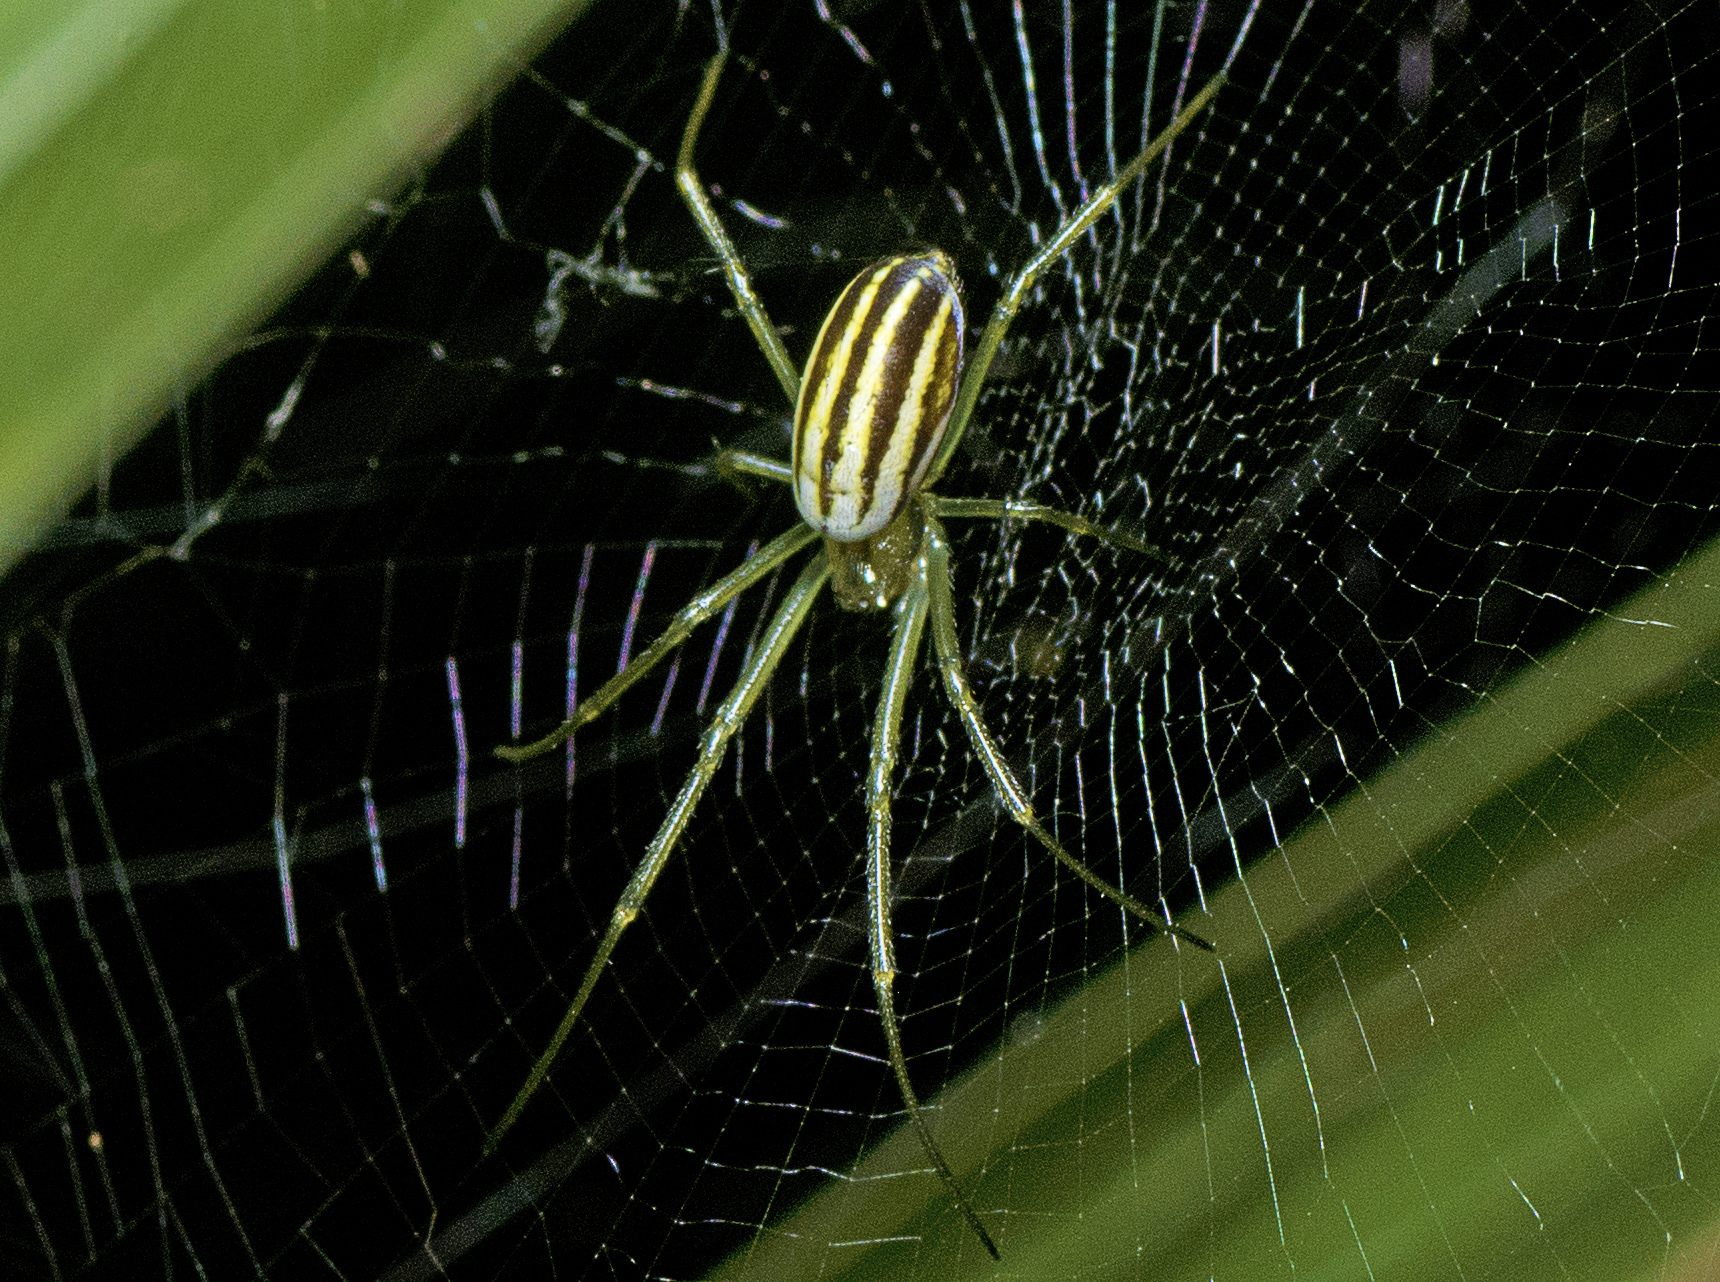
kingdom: Animalia
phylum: Arthropoda
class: Arachnida
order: Araneae
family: Araneidae
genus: Nephila
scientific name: Nephila pilipes
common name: Giant golden orb weaver
